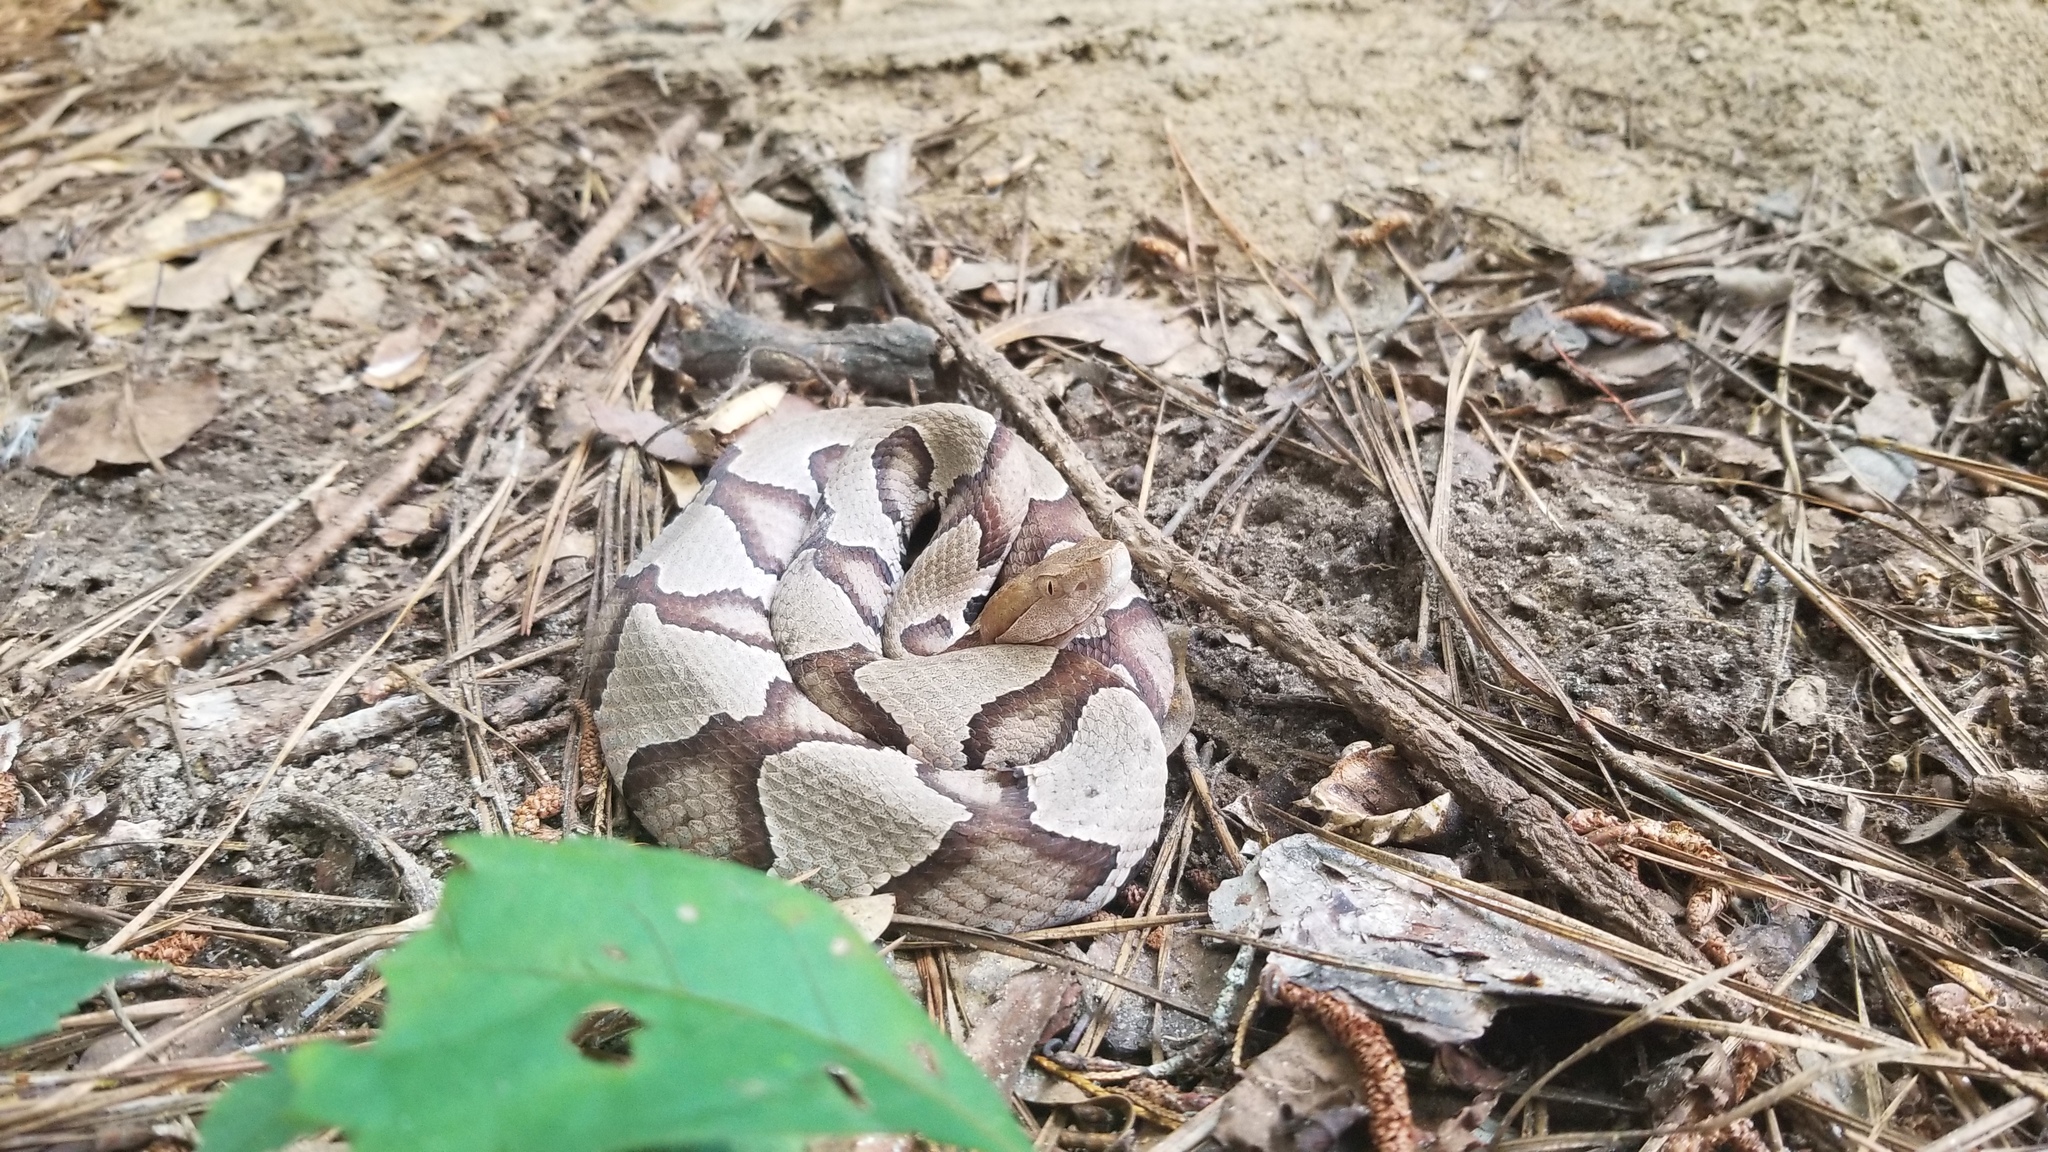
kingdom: Animalia
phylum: Chordata
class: Squamata
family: Viperidae
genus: Agkistrodon
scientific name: Agkistrodon contortrix
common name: Northern copperhead
